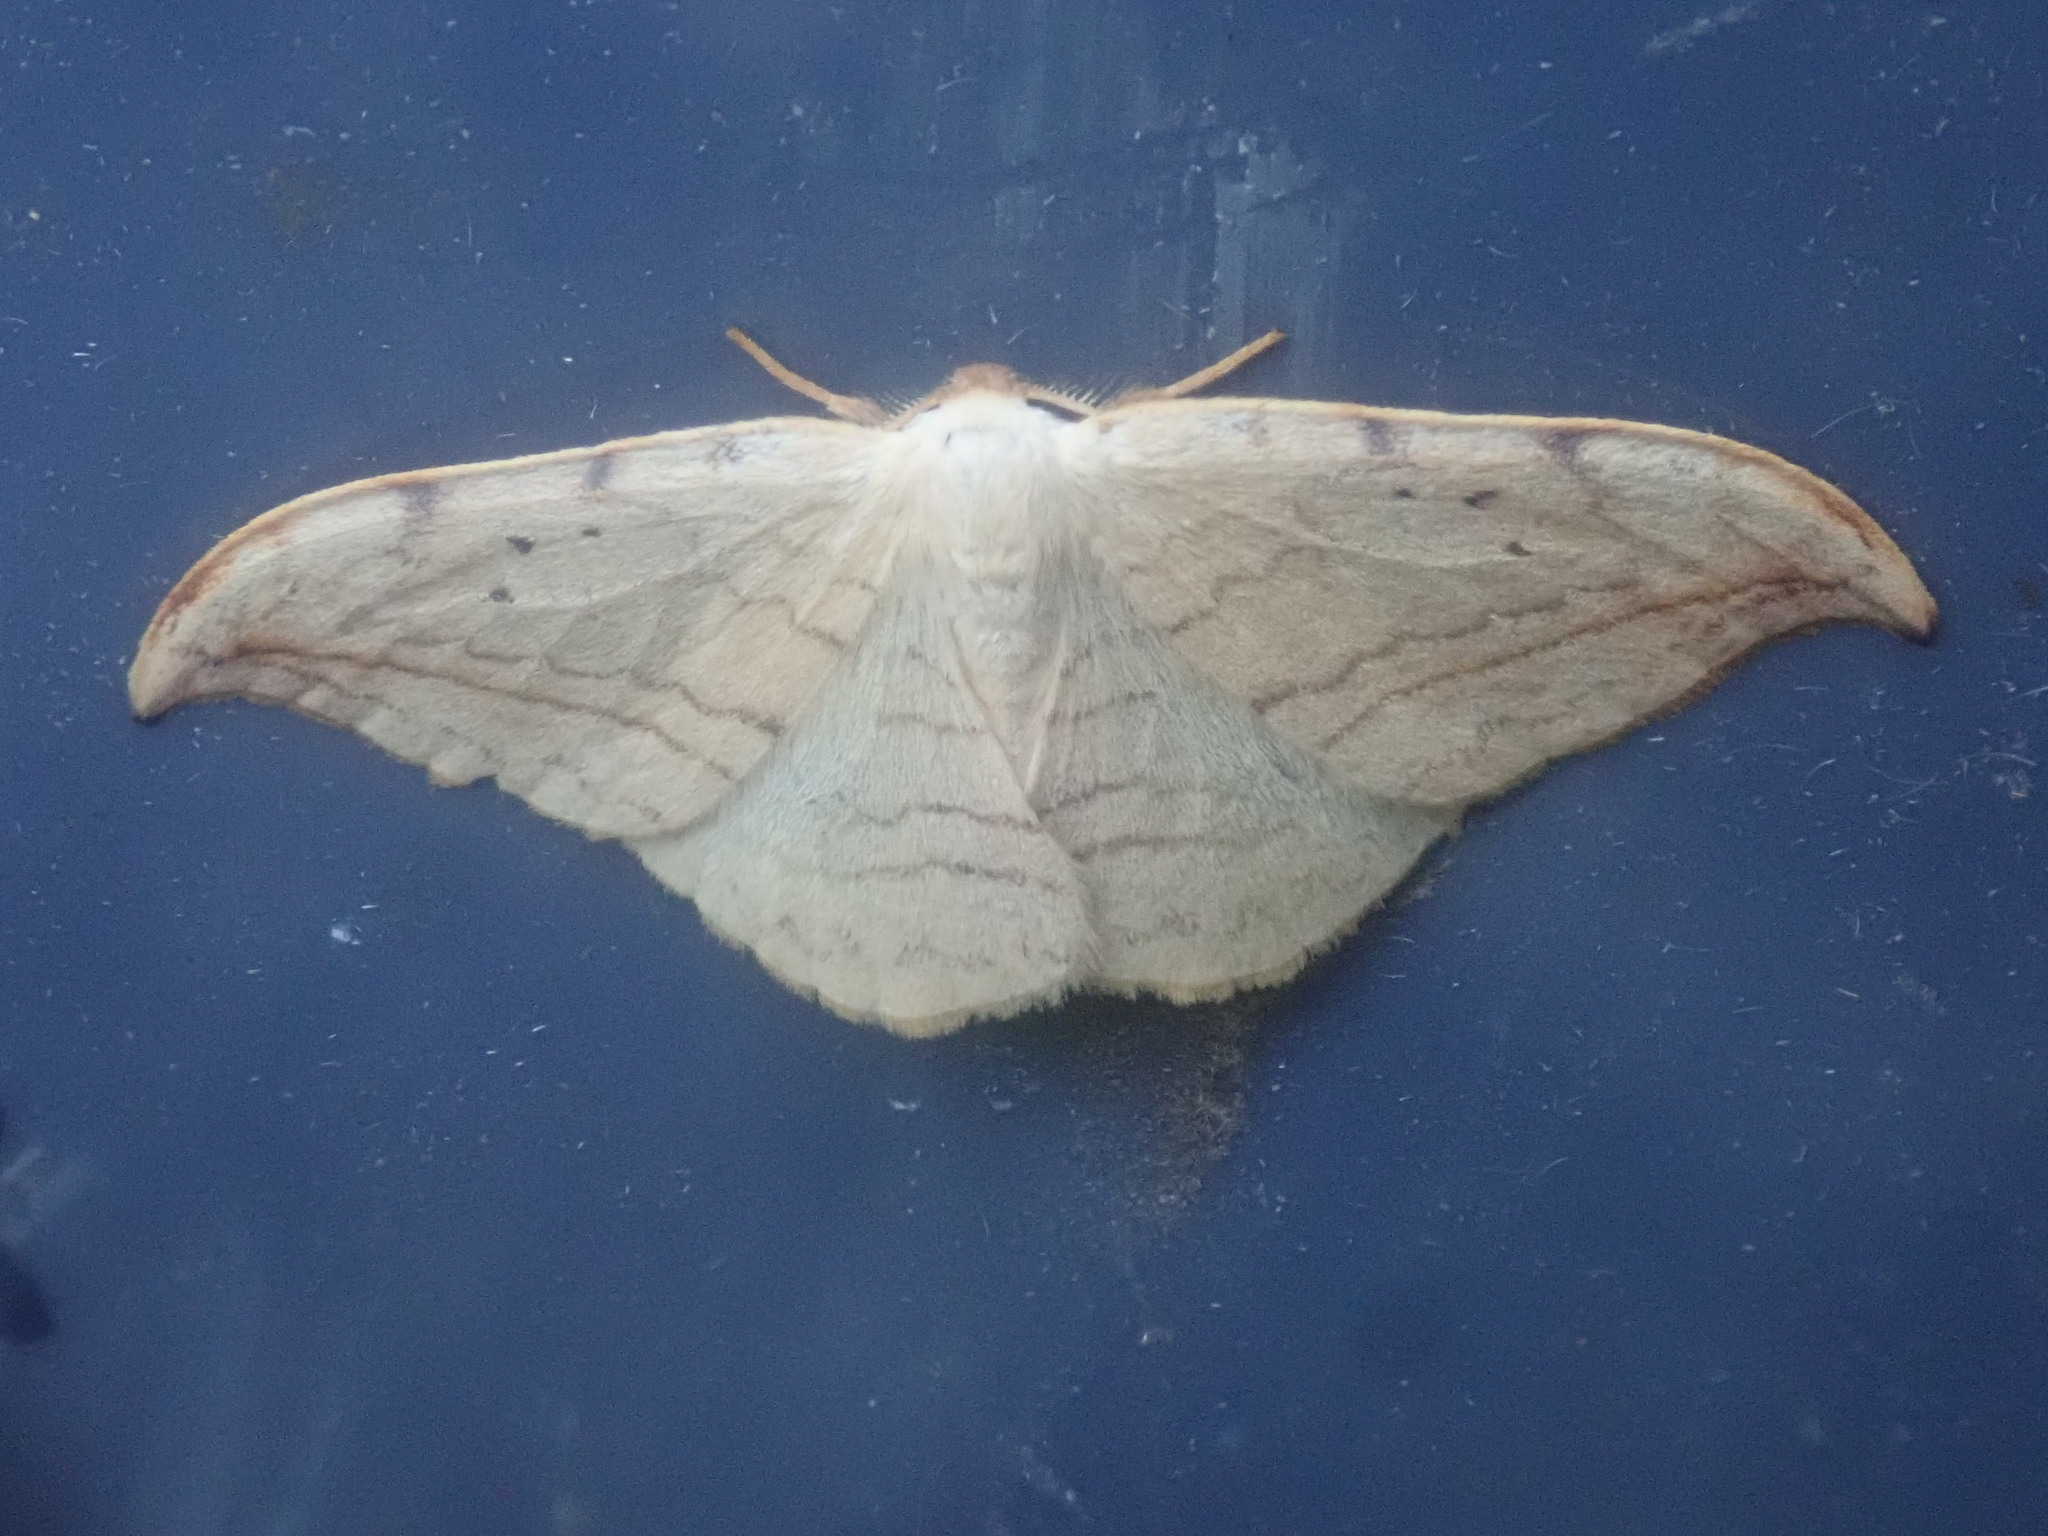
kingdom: Animalia
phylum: Arthropoda
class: Insecta
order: Lepidoptera
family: Drepanidae
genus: Drepana
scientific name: Drepana arcuata
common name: Arched hooktip moth
